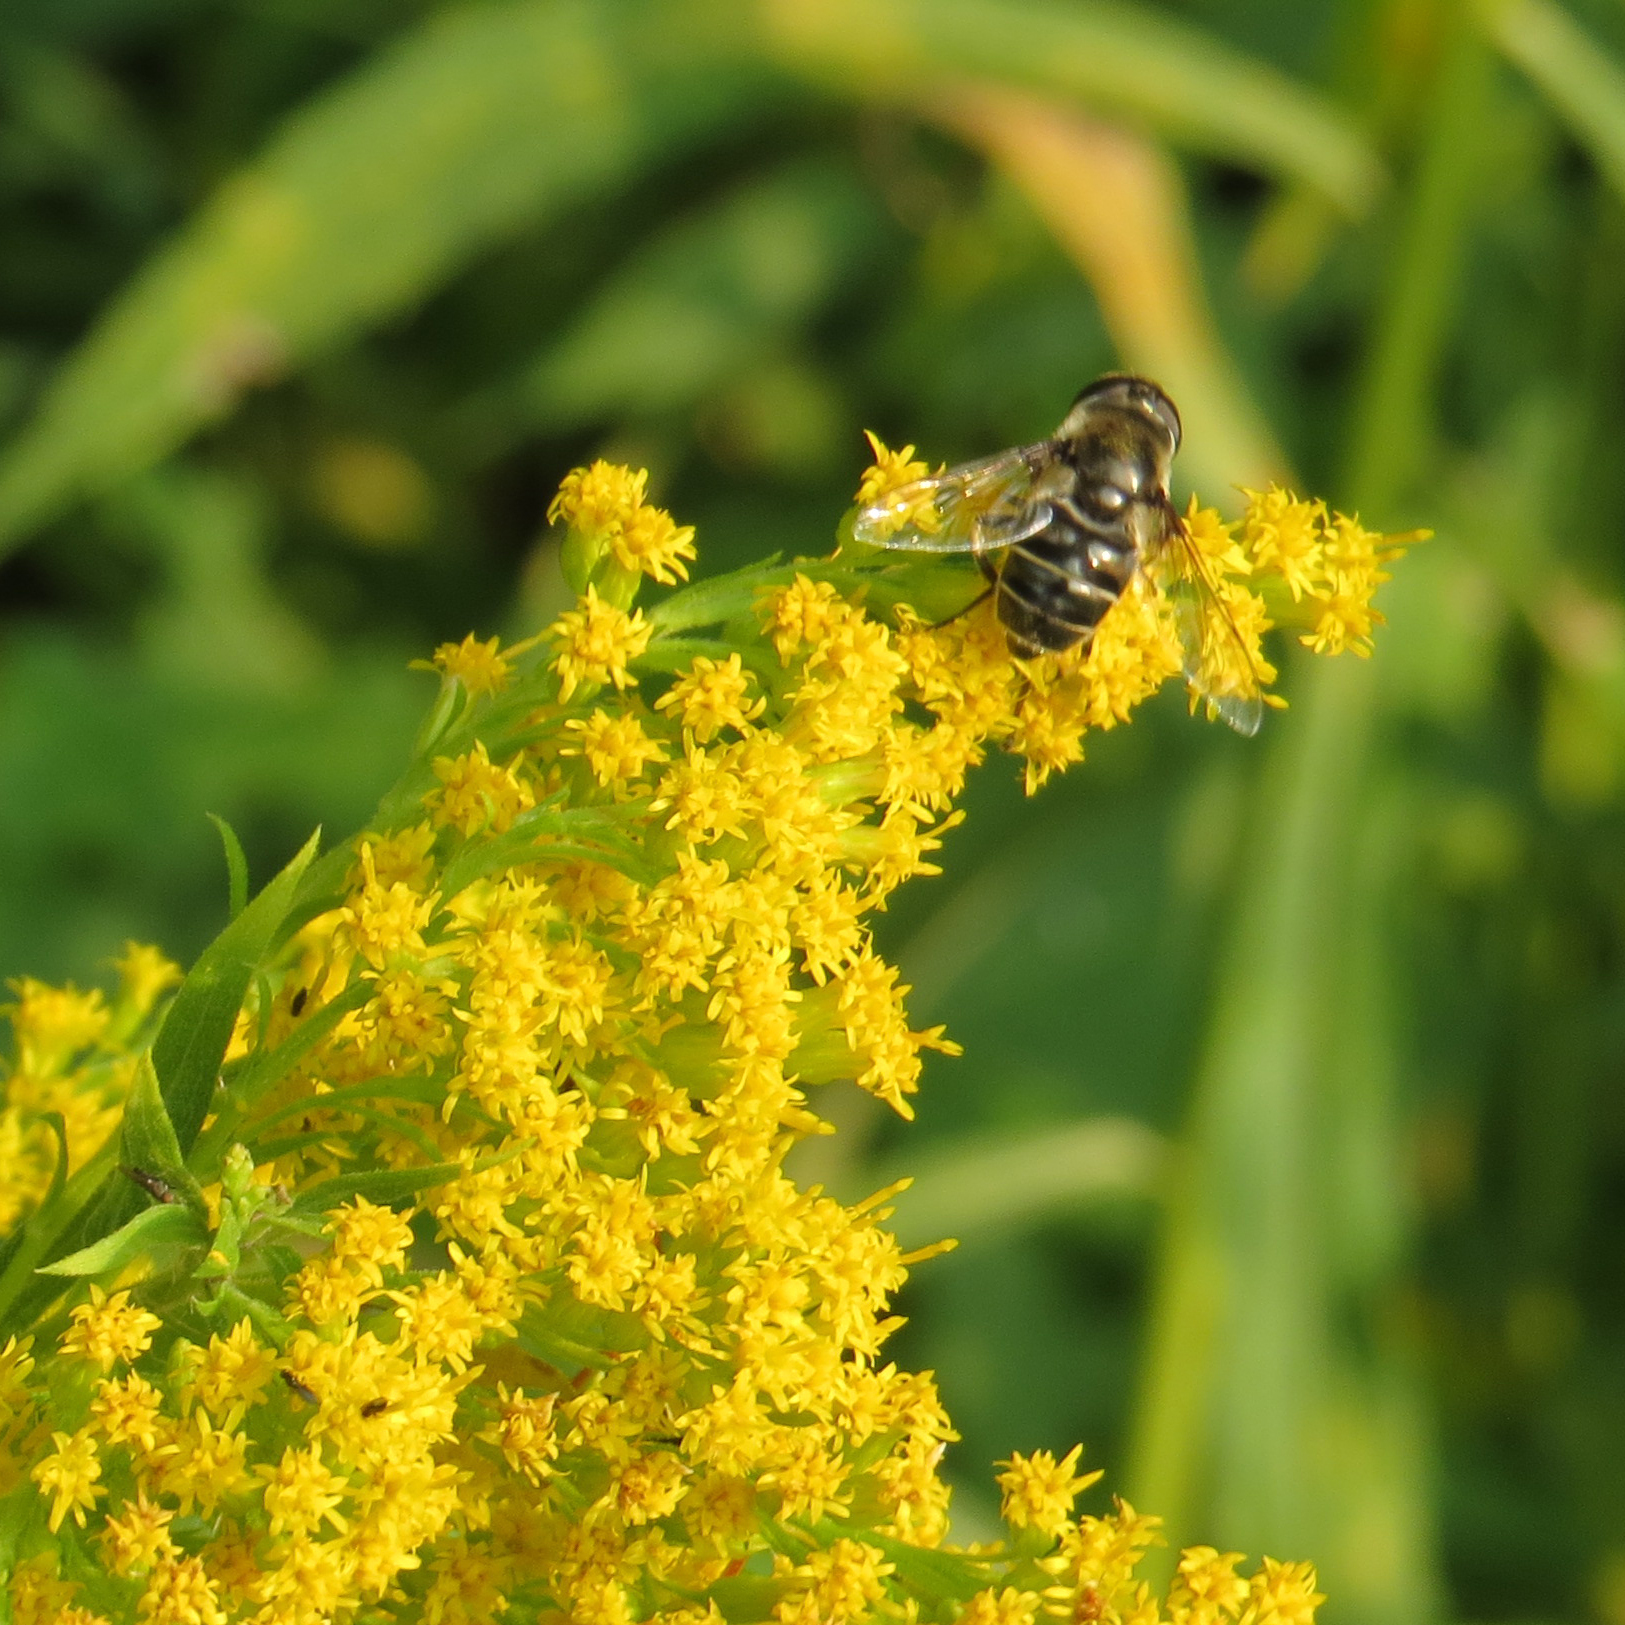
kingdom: Animalia
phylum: Arthropoda
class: Insecta
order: Diptera
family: Syrphidae
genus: Eristalis
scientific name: Eristalis dimidiata
